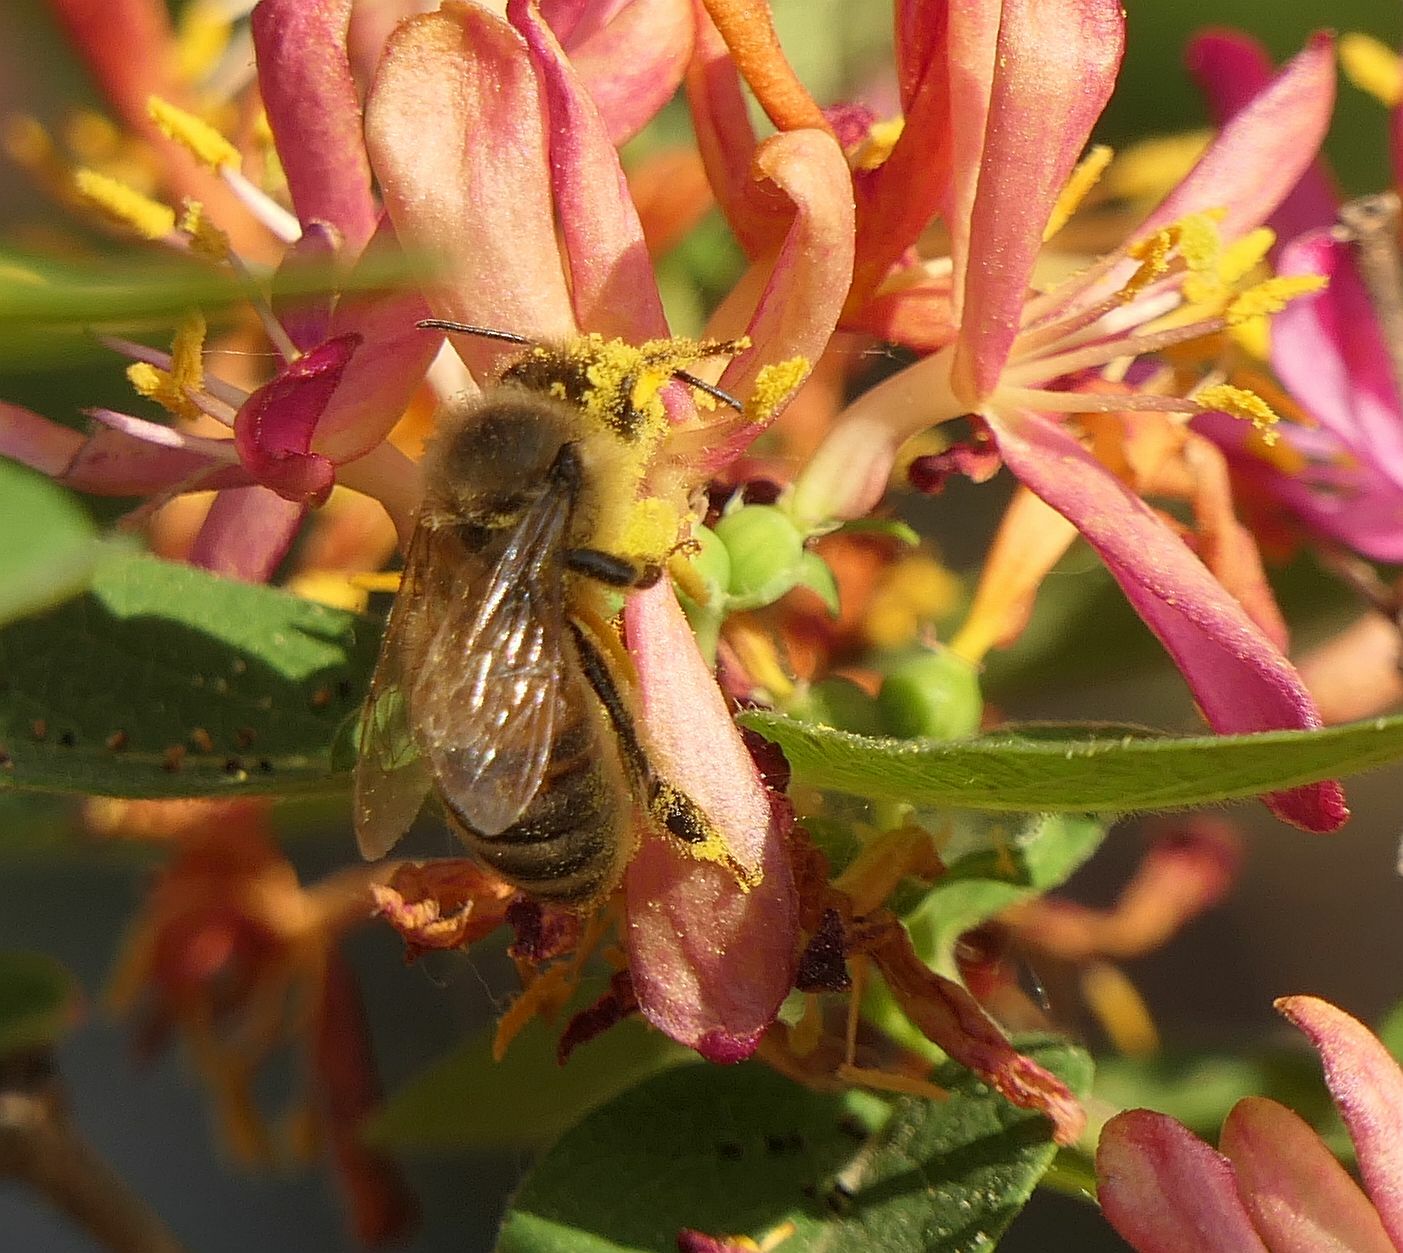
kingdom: Animalia
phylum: Arthropoda
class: Insecta
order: Hymenoptera
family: Apidae
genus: Apis
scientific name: Apis mellifera
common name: Honey bee
